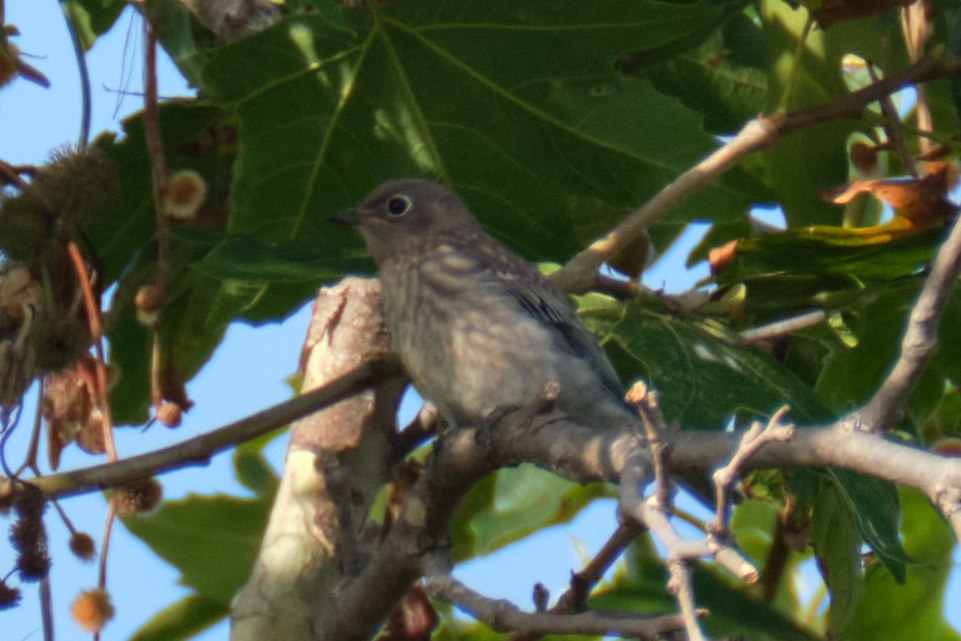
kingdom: Animalia
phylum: Chordata
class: Aves
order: Passeriformes
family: Turdidae
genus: Sialia
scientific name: Sialia mexicana
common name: Western bluebird
